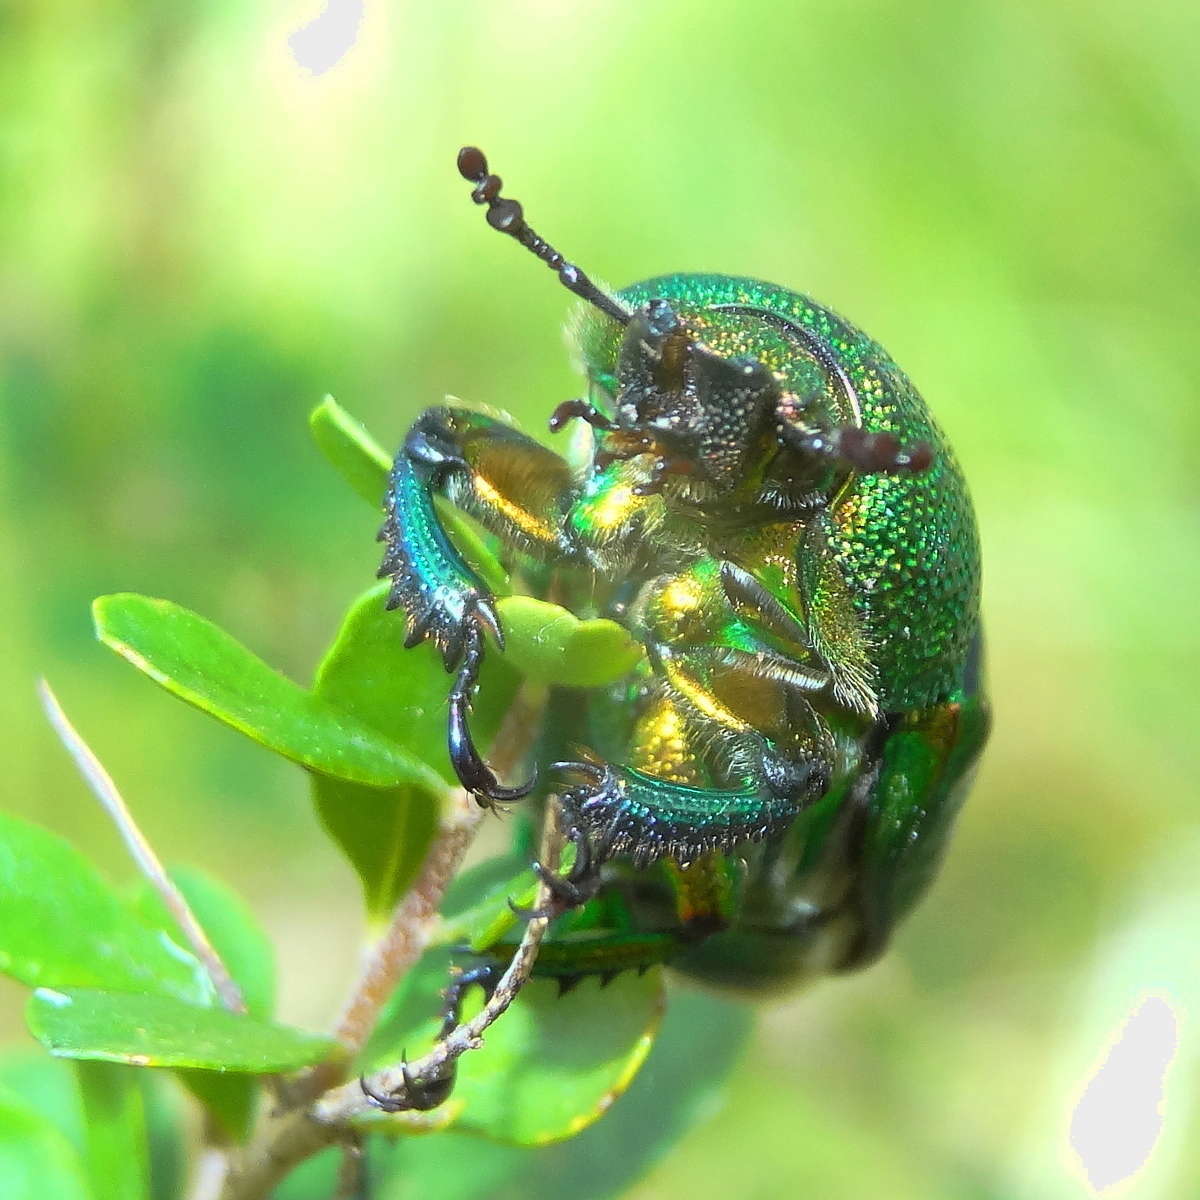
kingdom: Animalia
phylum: Arthropoda
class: Insecta
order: Coleoptera
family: Lucanidae
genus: Lamprima
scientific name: Lamprima aurata
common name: Golden stag beetle
